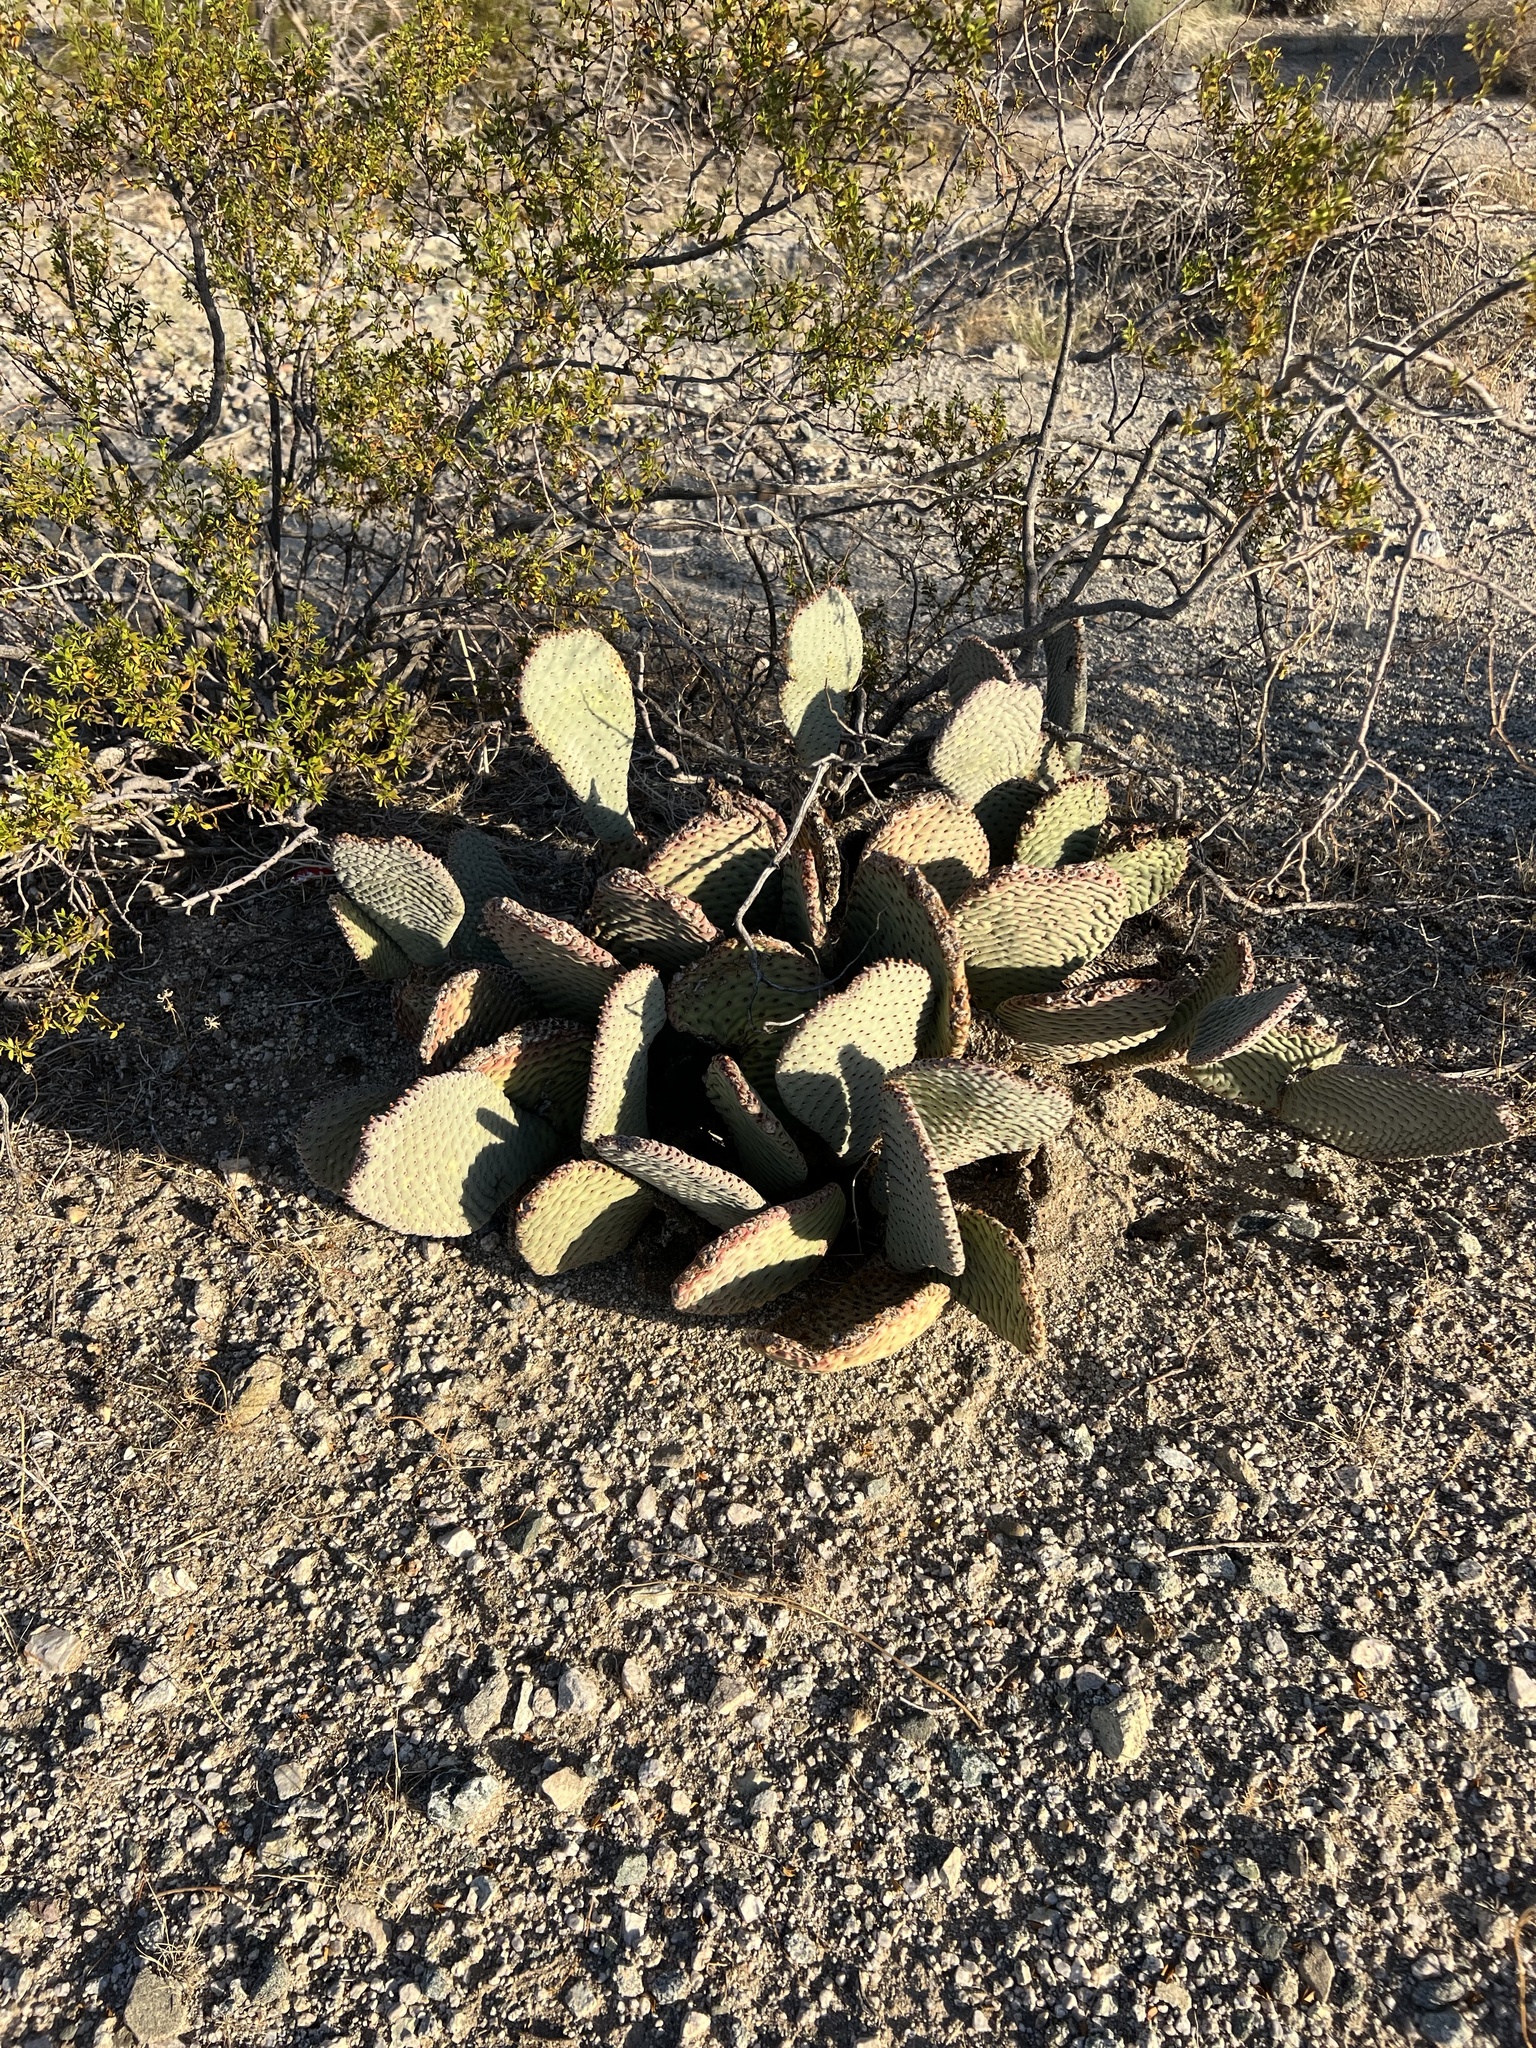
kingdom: Plantae
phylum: Tracheophyta
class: Magnoliopsida
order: Caryophyllales
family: Cactaceae
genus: Opuntia
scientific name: Opuntia basilaris
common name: Beavertail prickly-pear
